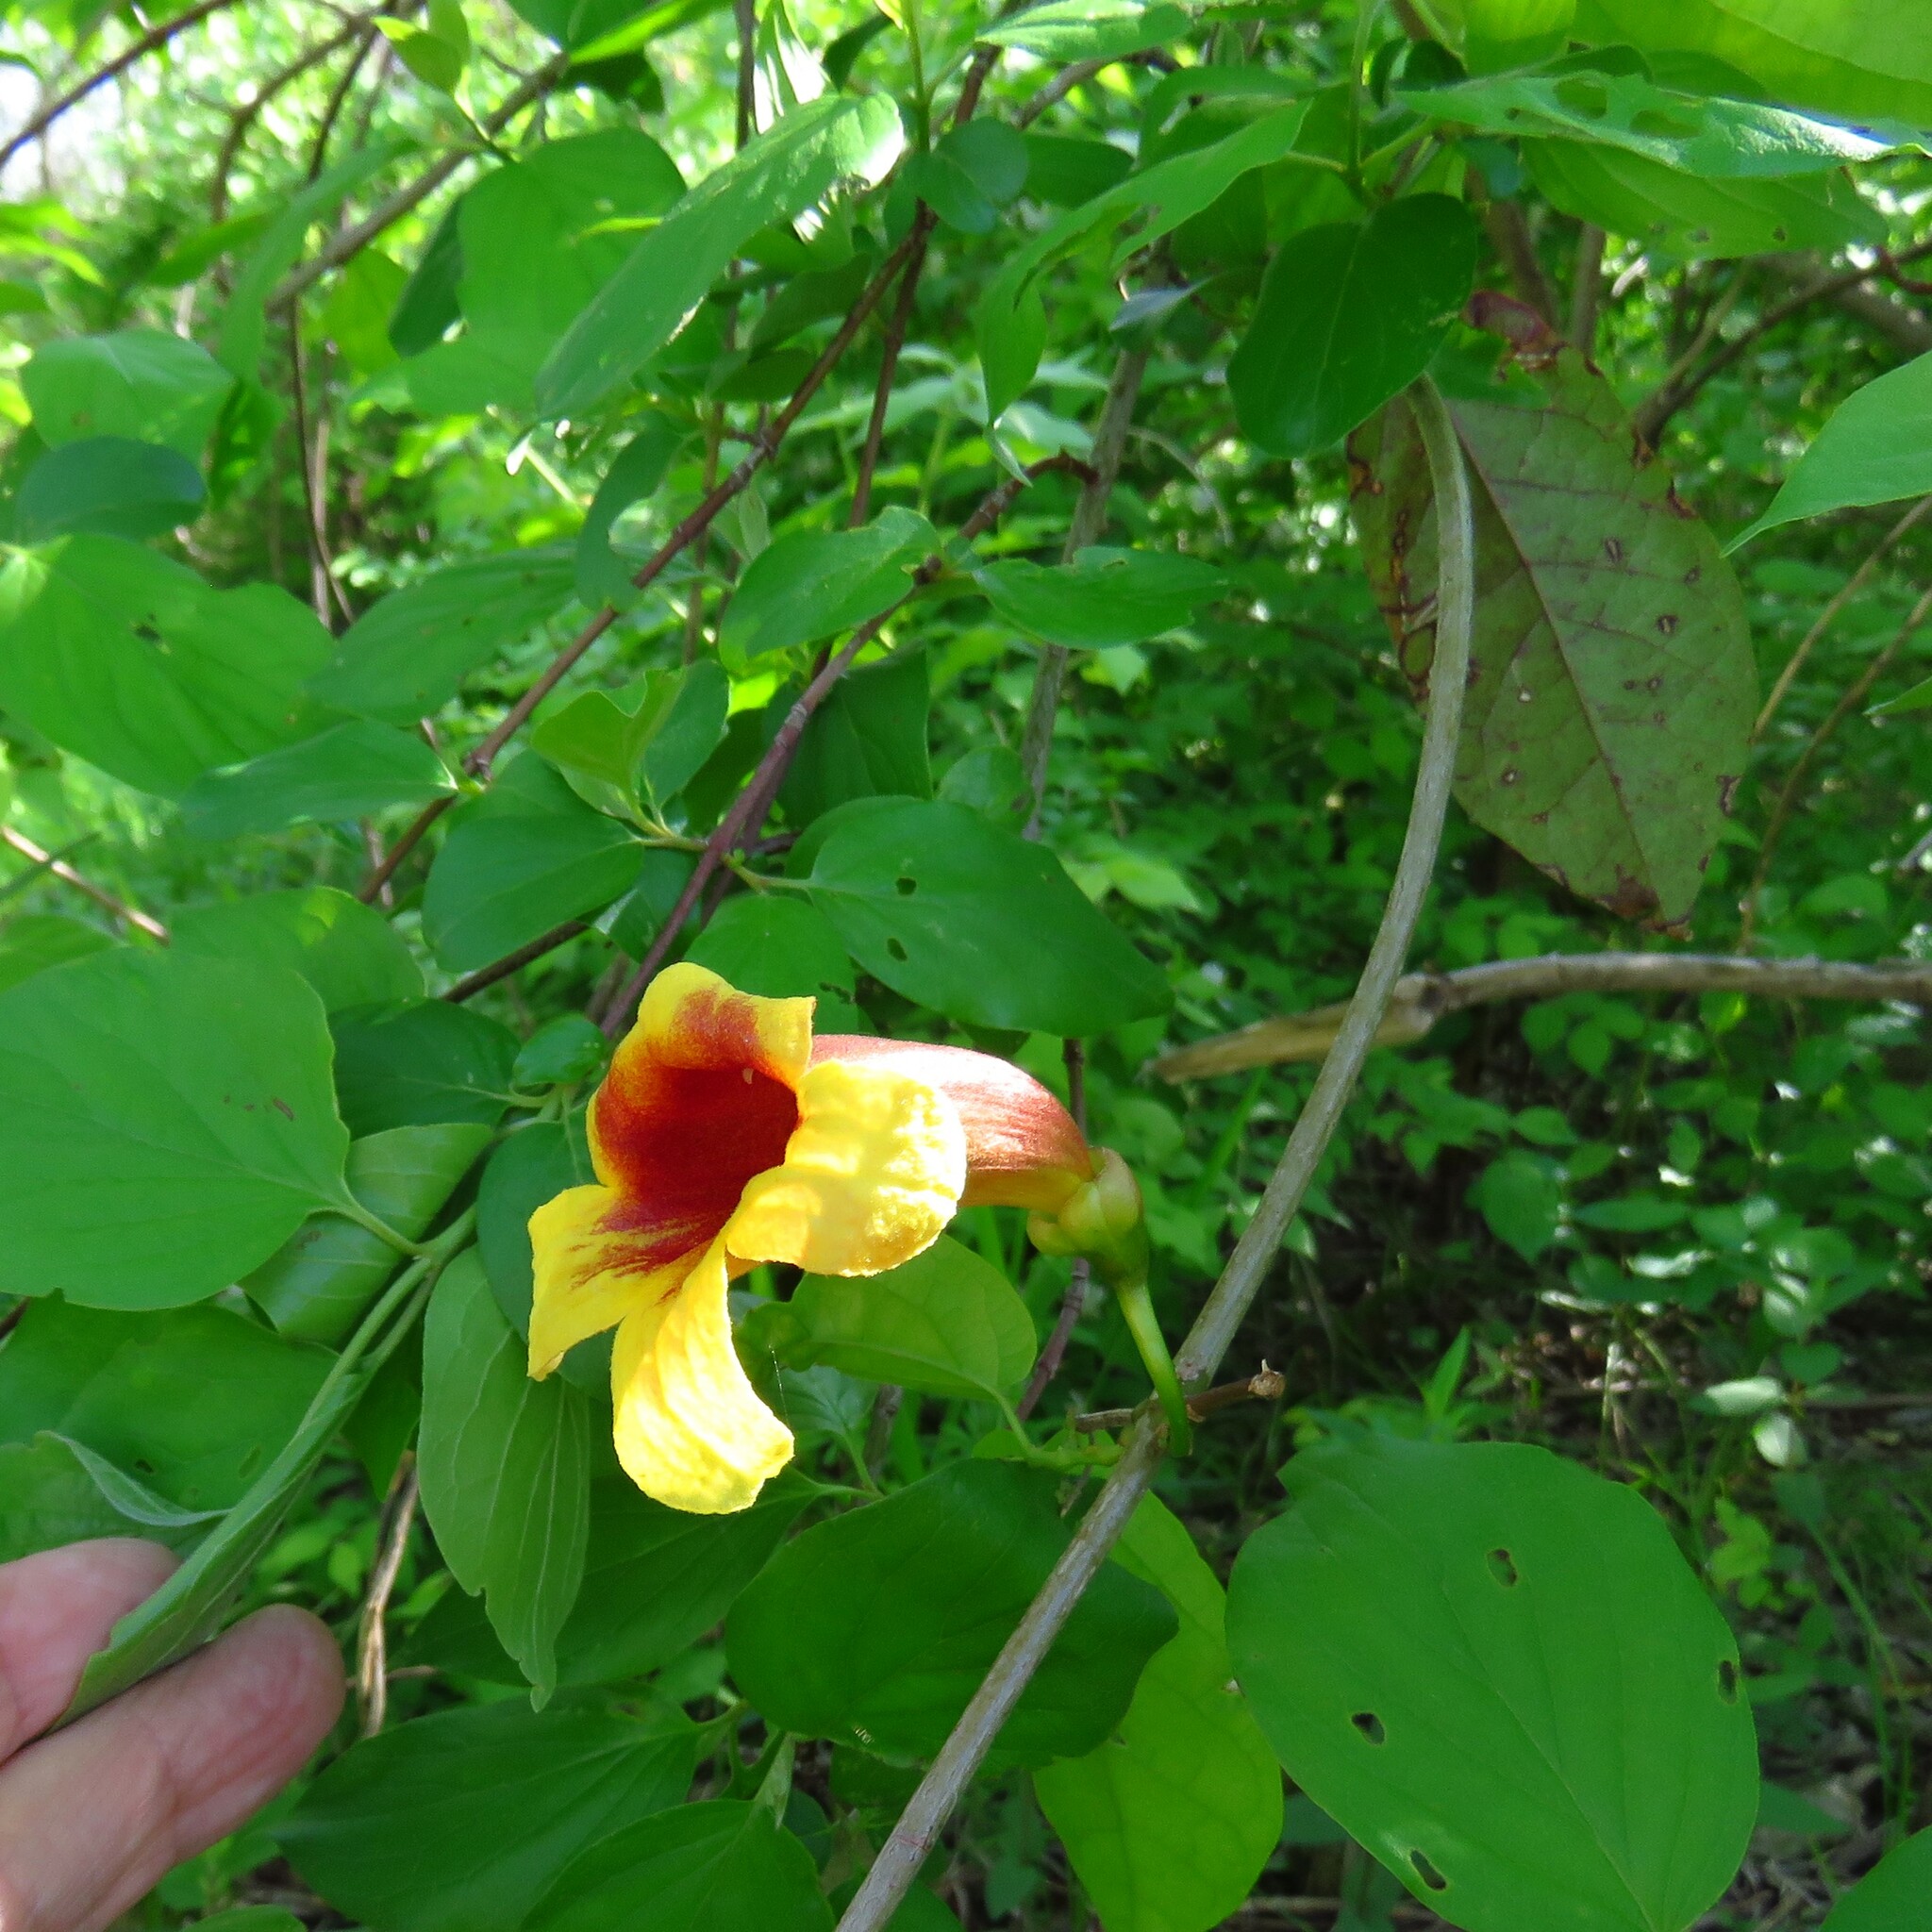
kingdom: Plantae
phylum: Tracheophyta
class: Magnoliopsida
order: Lamiales
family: Bignoniaceae
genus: Bignonia
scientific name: Bignonia capreolata
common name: Crossvine
